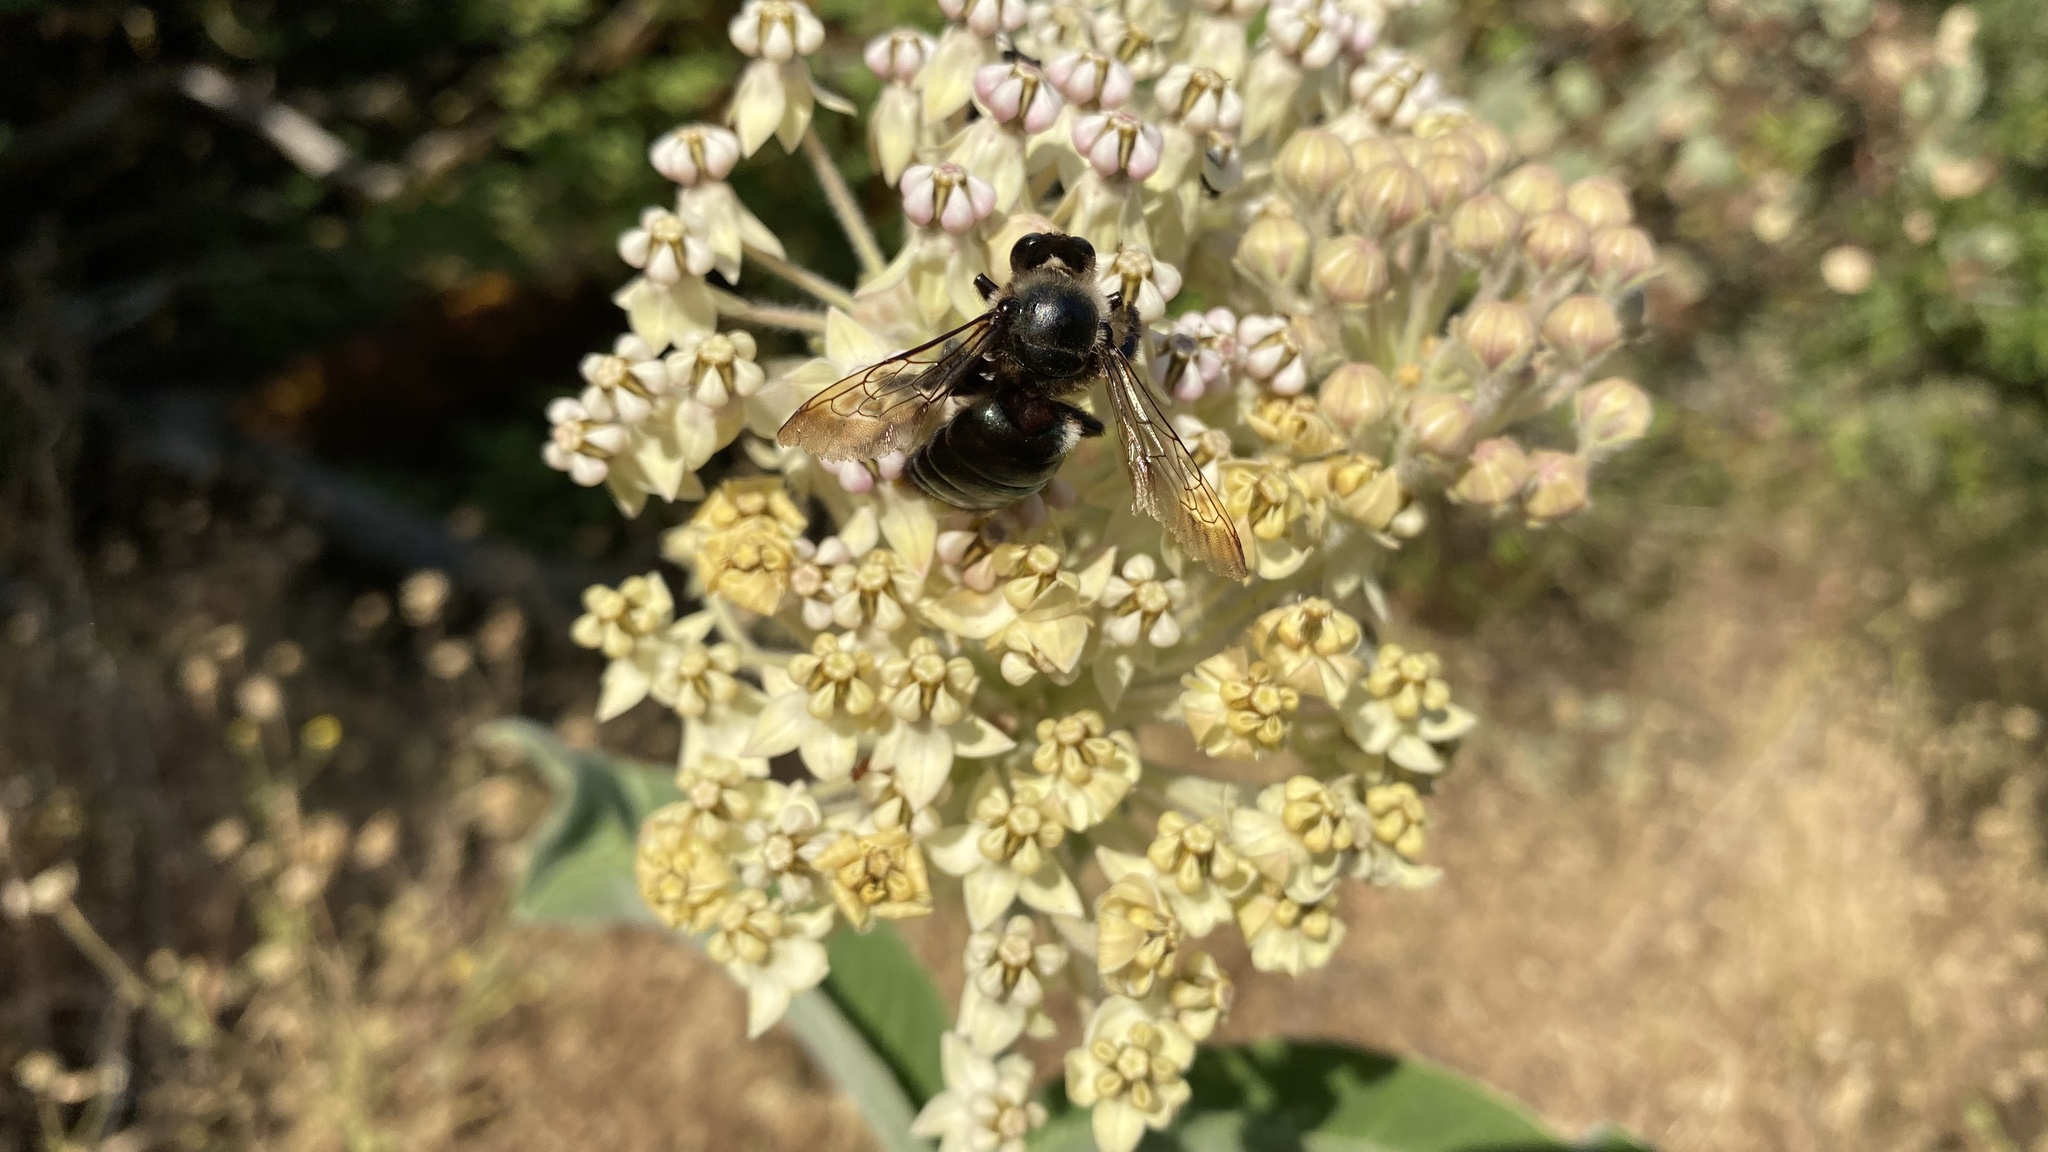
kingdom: Animalia
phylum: Arthropoda
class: Insecta
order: Hymenoptera
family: Apidae
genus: Xylocopa
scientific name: Xylocopa californica
